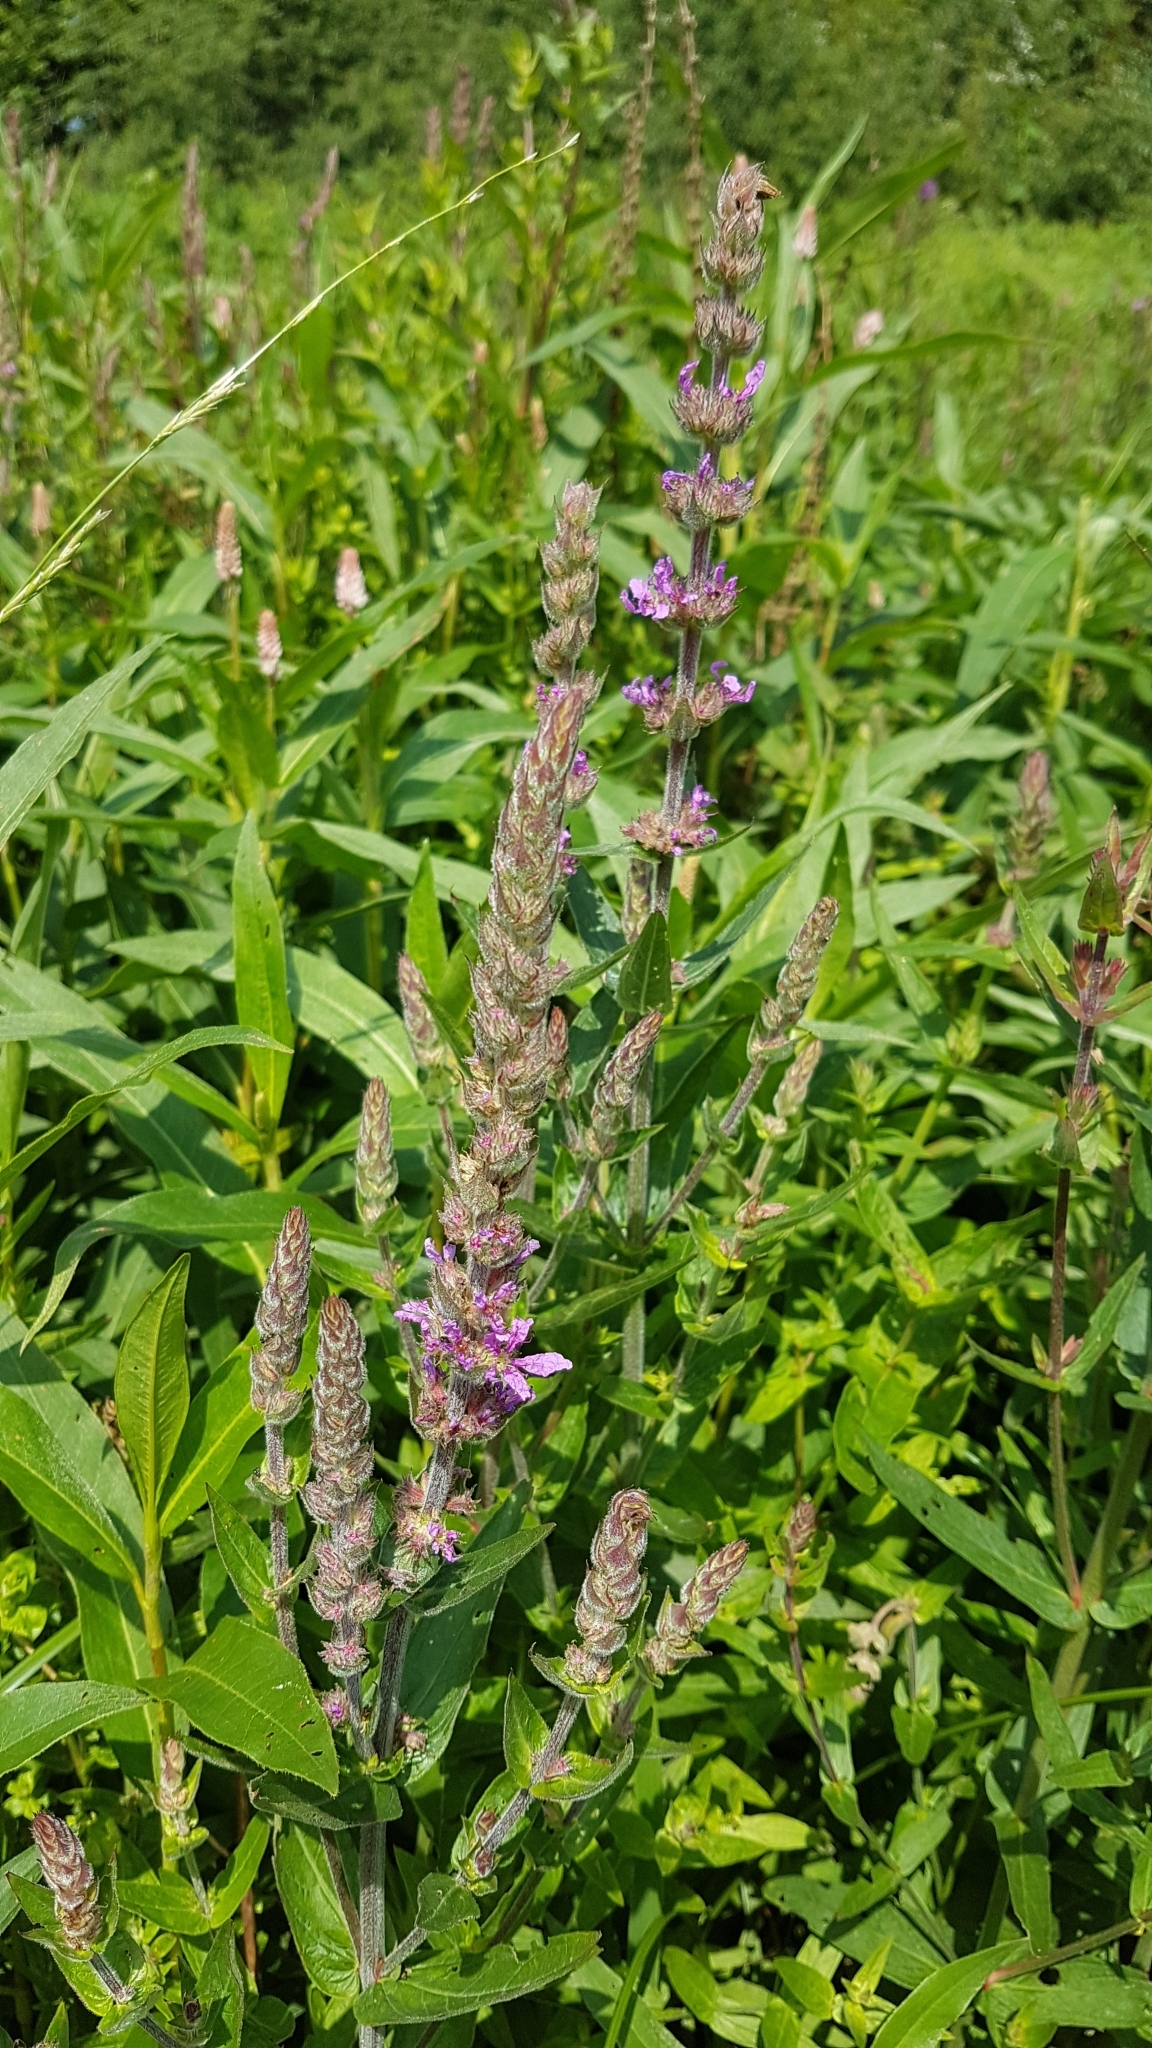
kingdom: Plantae
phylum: Tracheophyta
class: Magnoliopsida
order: Myrtales
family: Lythraceae
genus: Lythrum
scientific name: Lythrum salicaria
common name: Purple loosestrife
